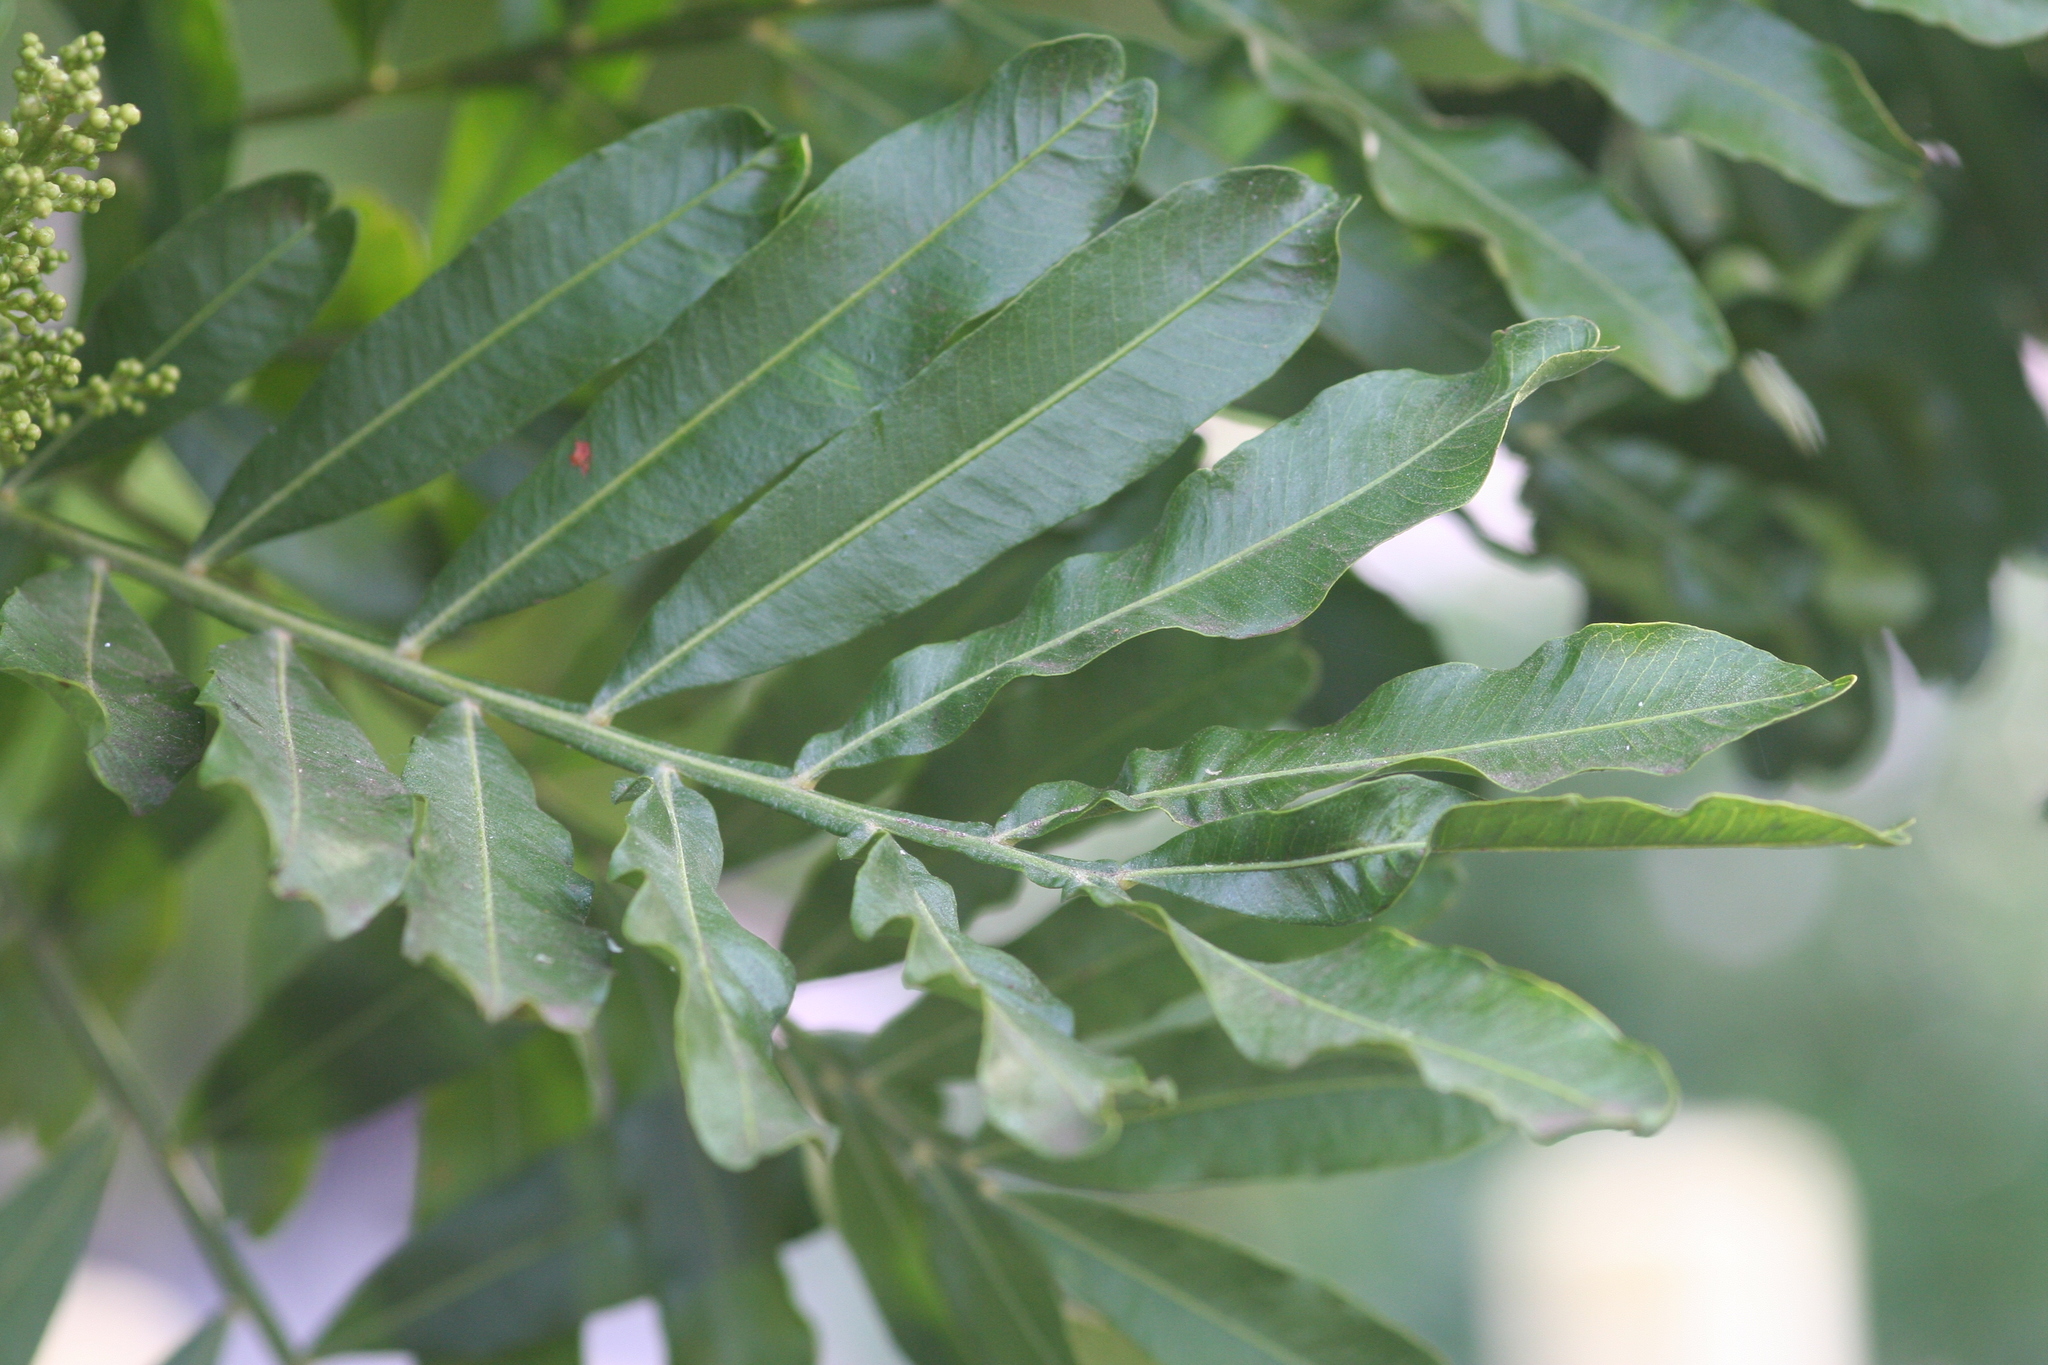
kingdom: Plantae
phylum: Tracheophyta
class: Magnoliopsida
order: Sapindales
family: Sapindaceae
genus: Filicium
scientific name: Filicium decipiens
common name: Ferntree
